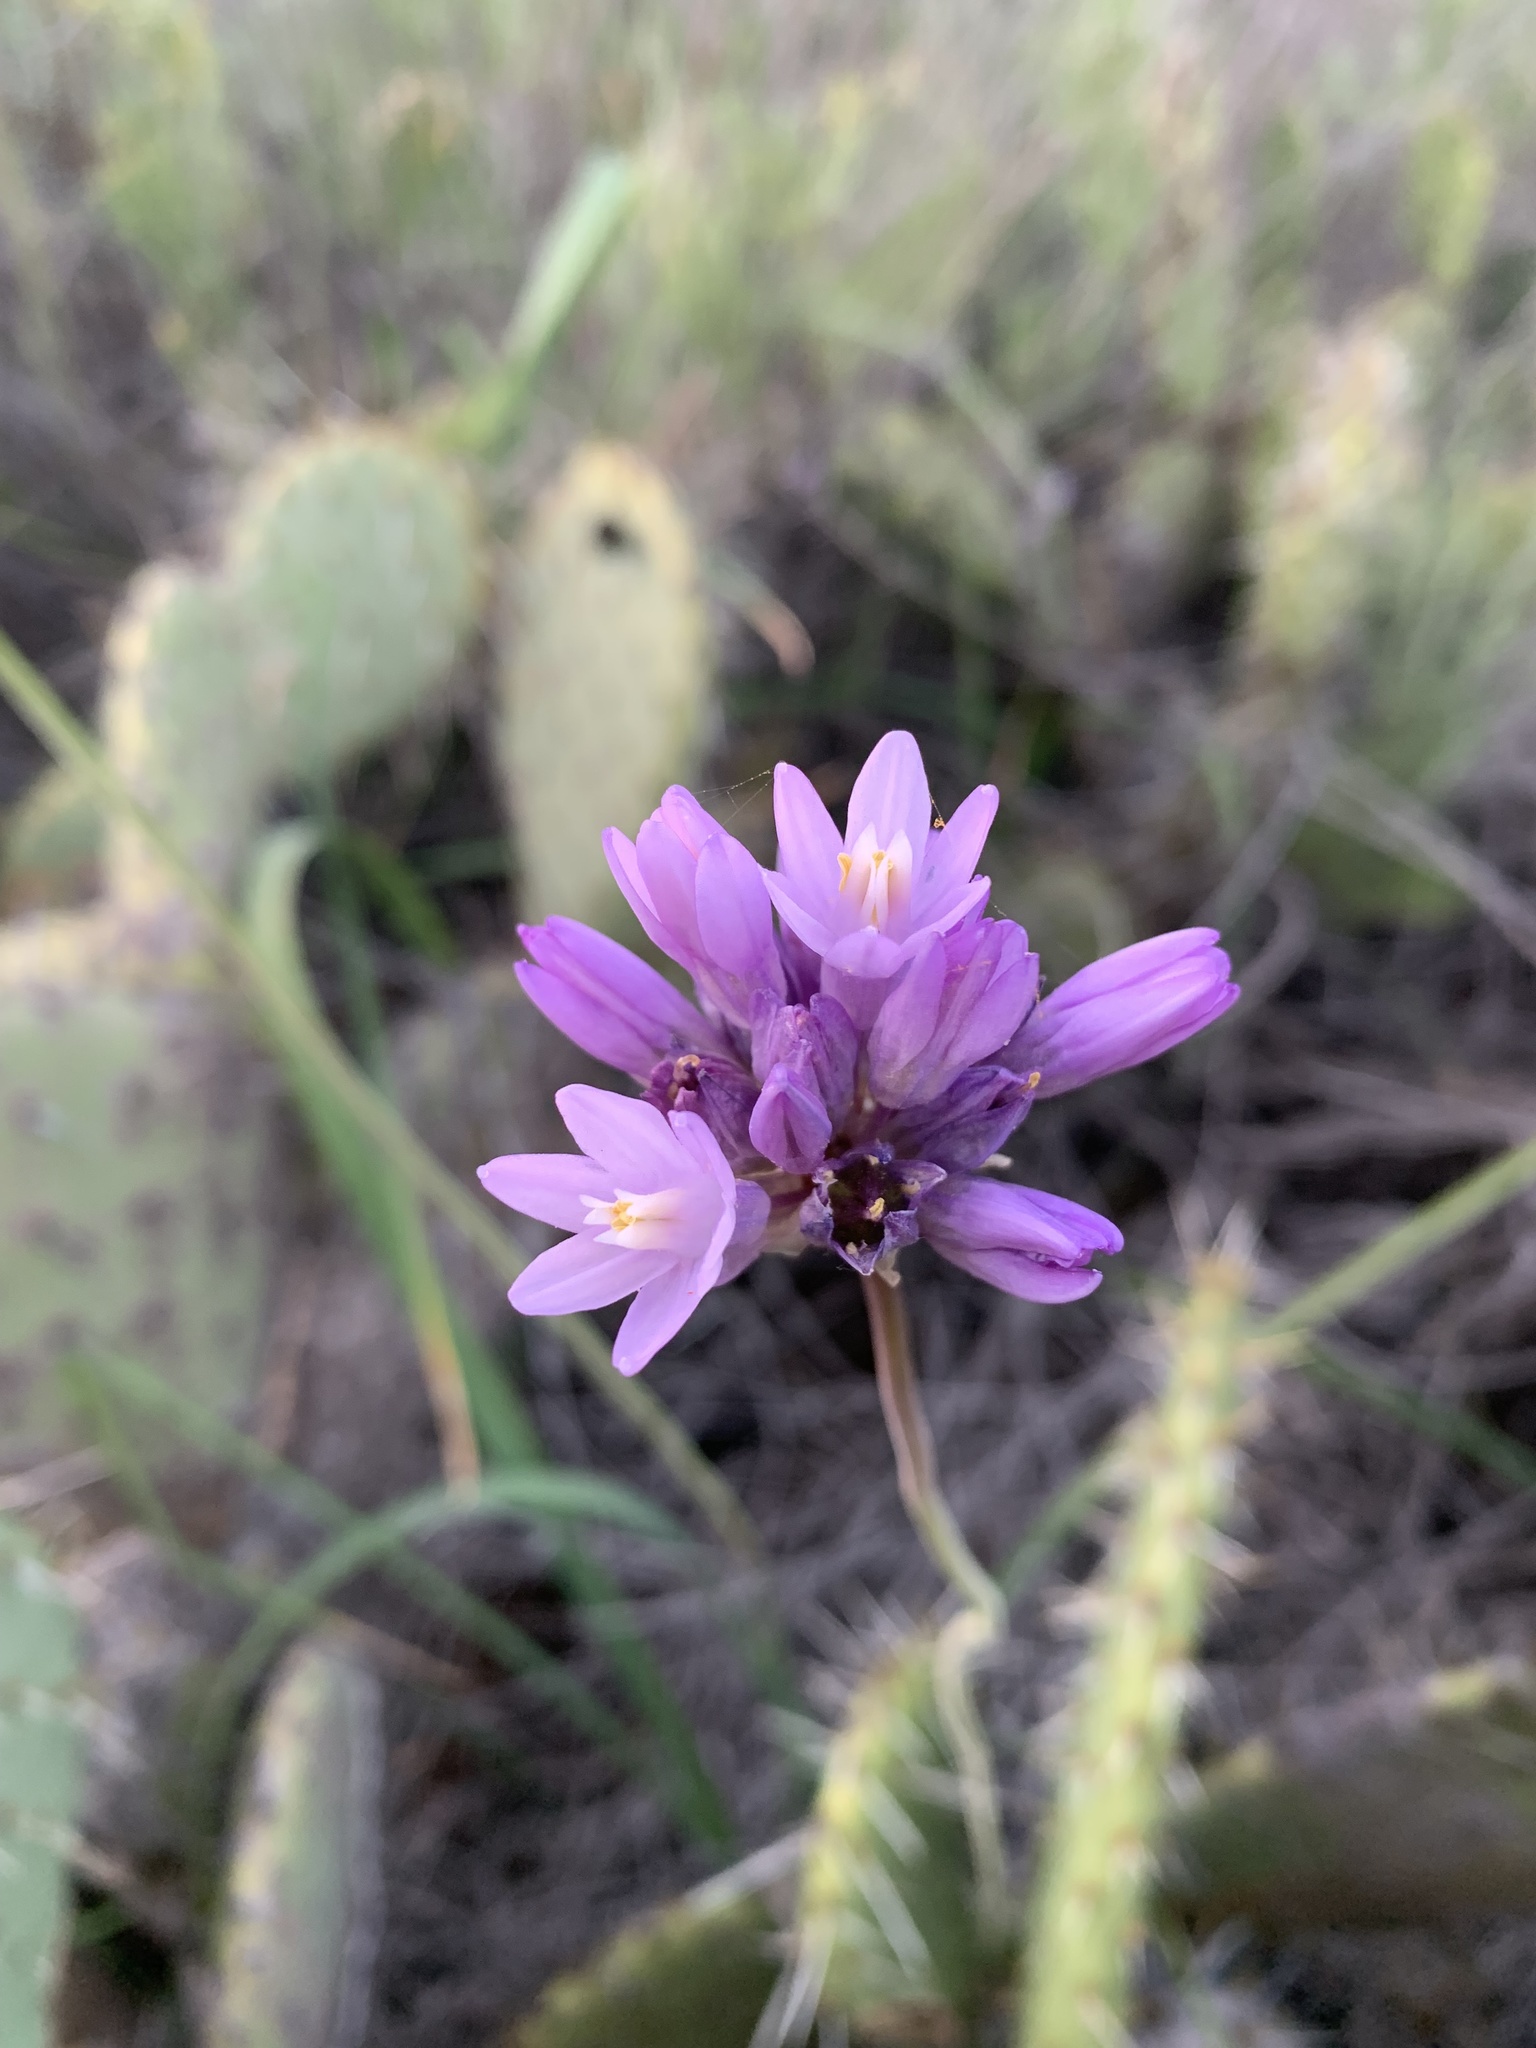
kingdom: Plantae
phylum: Tracheophyta
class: Liliopsida
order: Asparagales
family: Asparagaceae
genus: Dipterostemon
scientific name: Dipterostemon capitatus
